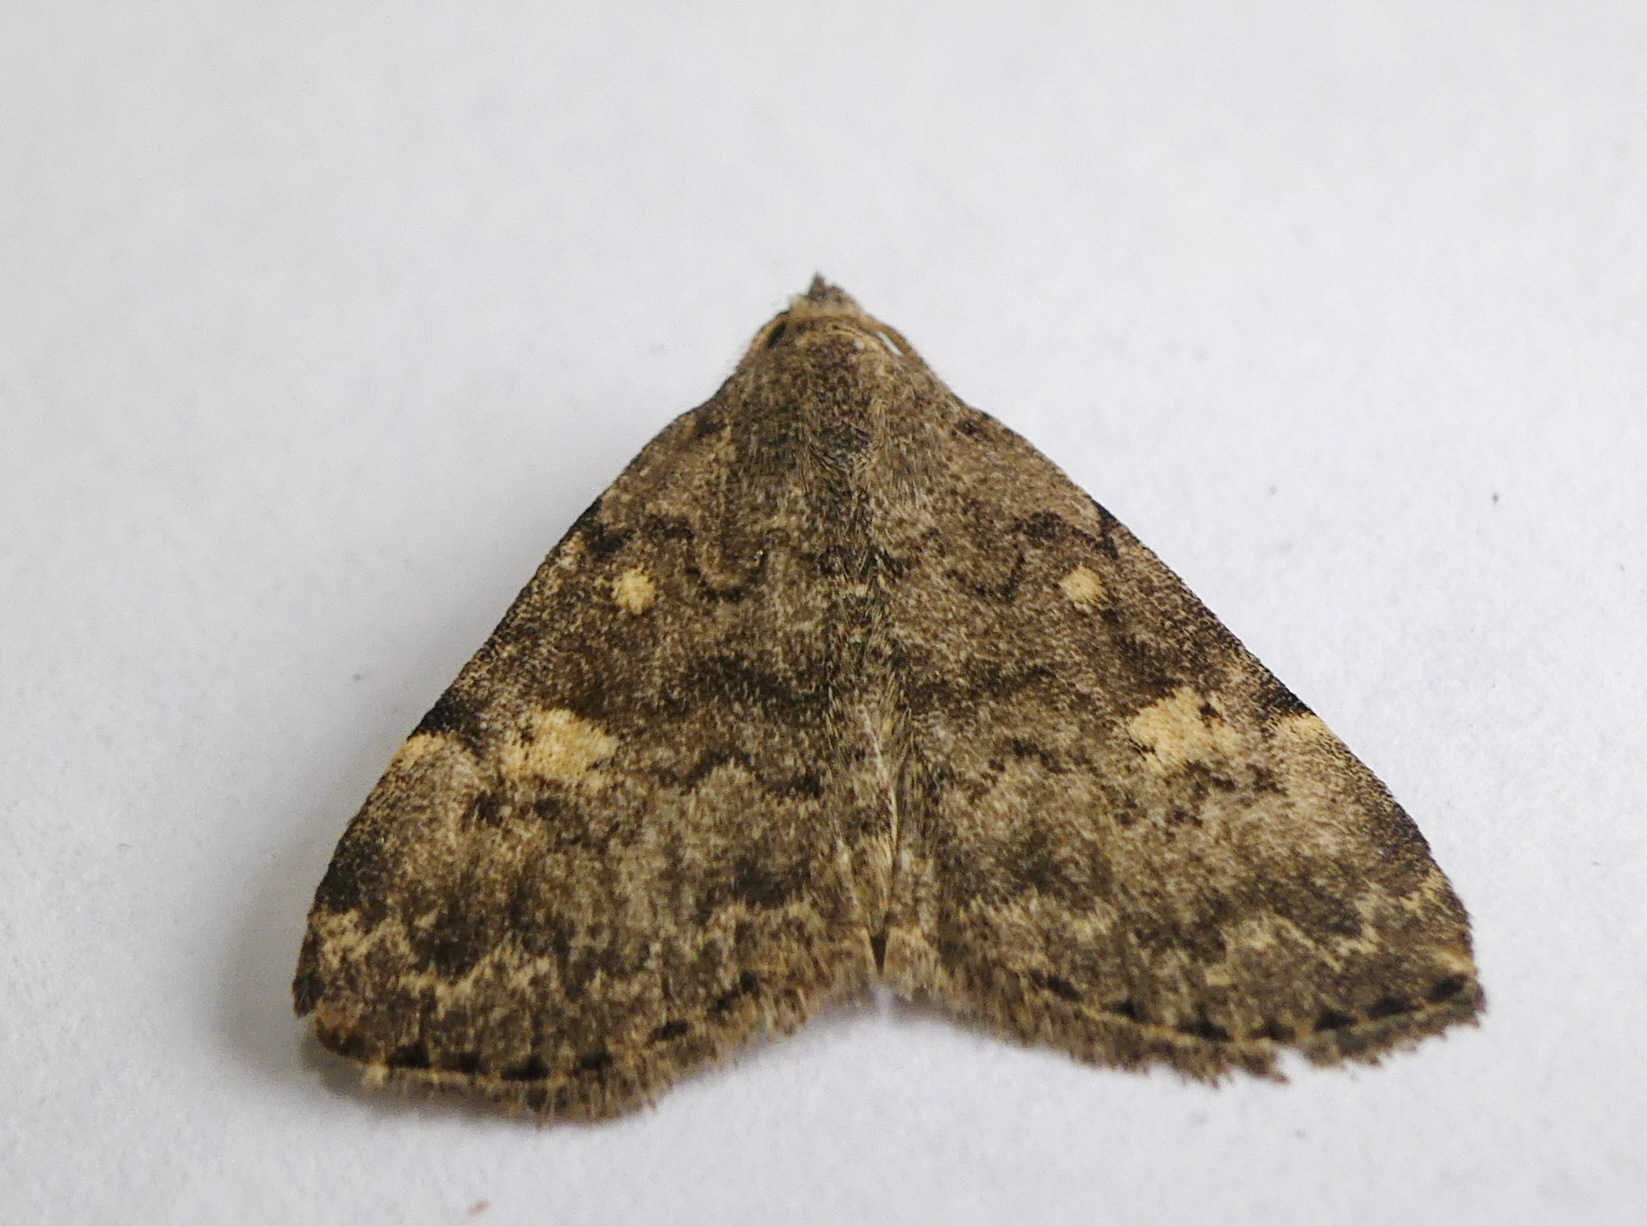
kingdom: Animalia
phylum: Arthropoda
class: Insecta
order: Lepidoptera
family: Erebidae
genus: Idia
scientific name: Idia aemula
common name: Common idia moth
